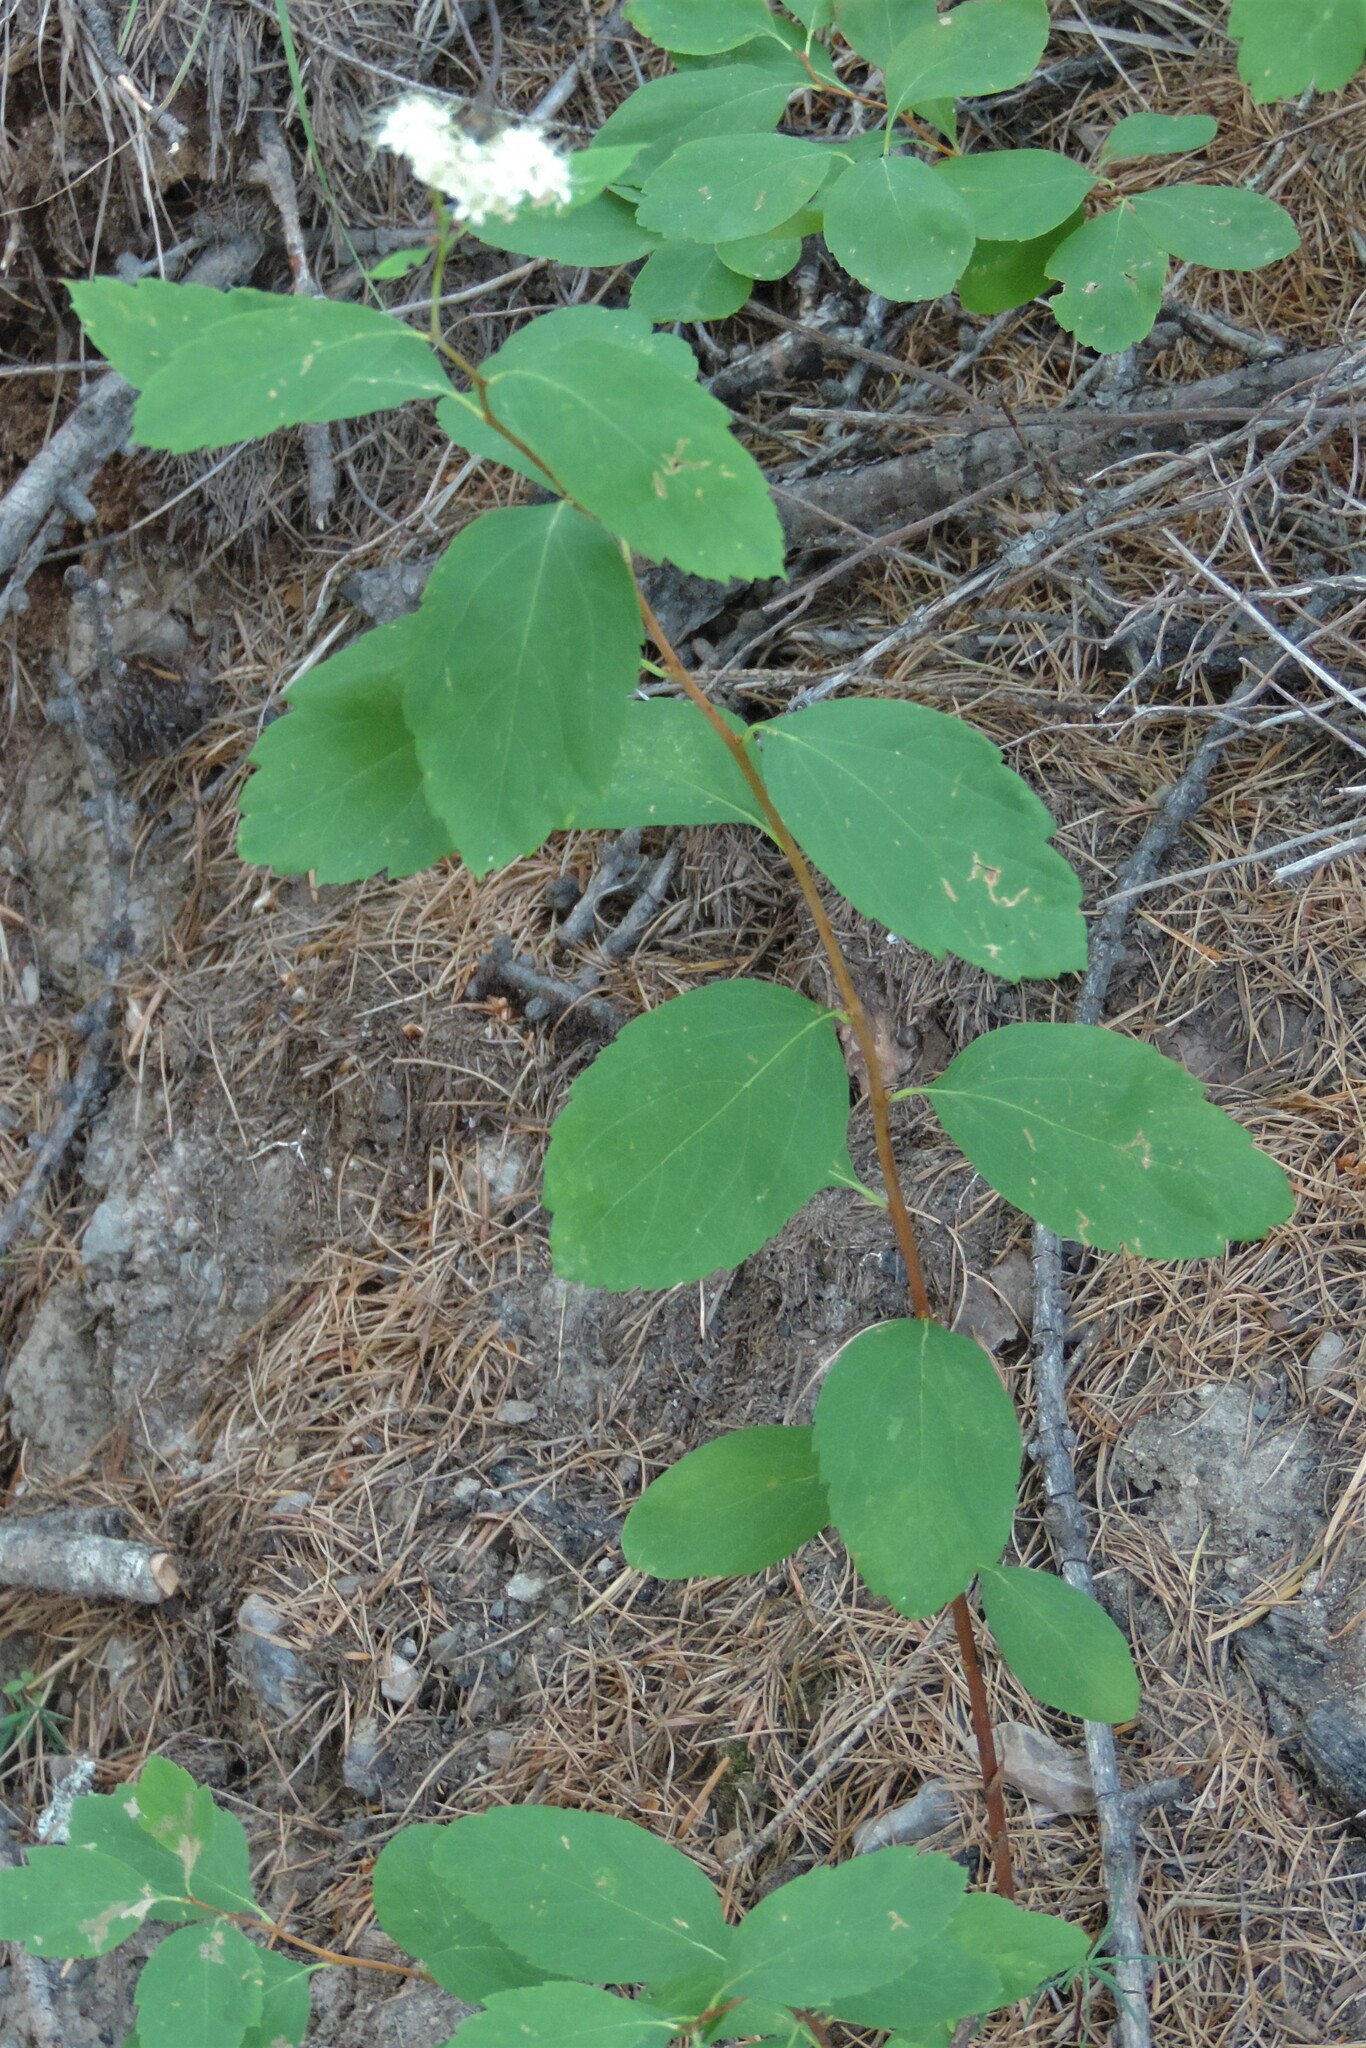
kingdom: Plantae
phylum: Tracheophyta
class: Magnoliopsida
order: Rosales
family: Rosaceae
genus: Spiraea
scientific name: Spiraea lucida
